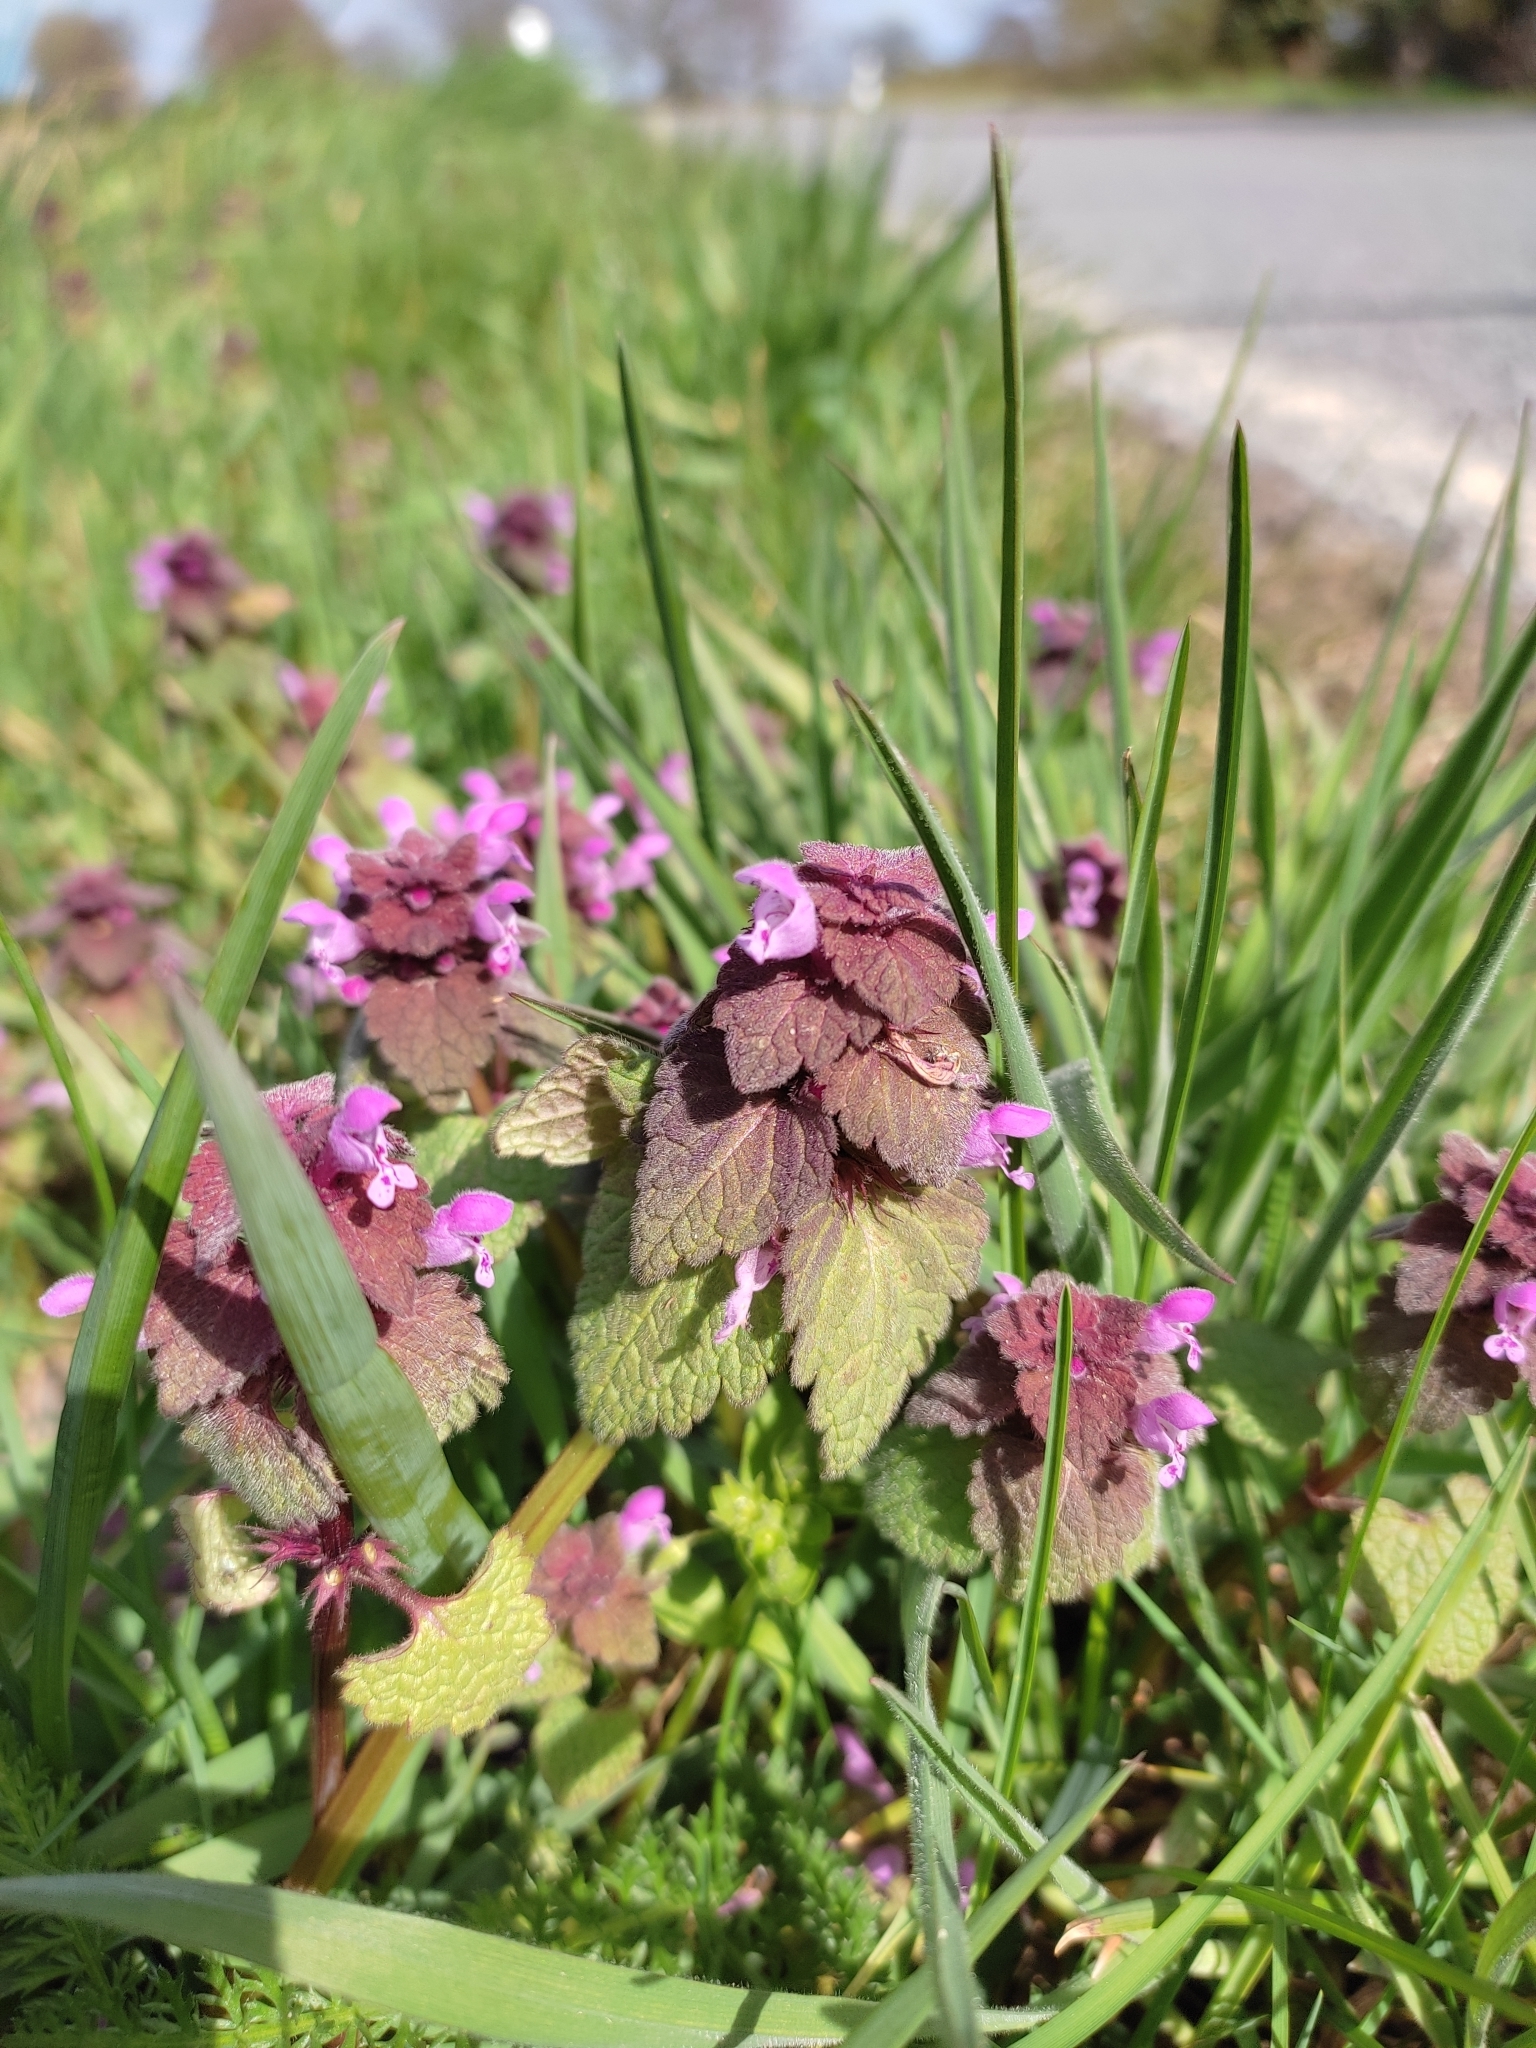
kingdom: Plantae
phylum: Tracheophyta
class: Magnoliopsida
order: Lamiales
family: Lamiaceae
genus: Lamium
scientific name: Lamium purpureum
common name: Red dead-nettle
